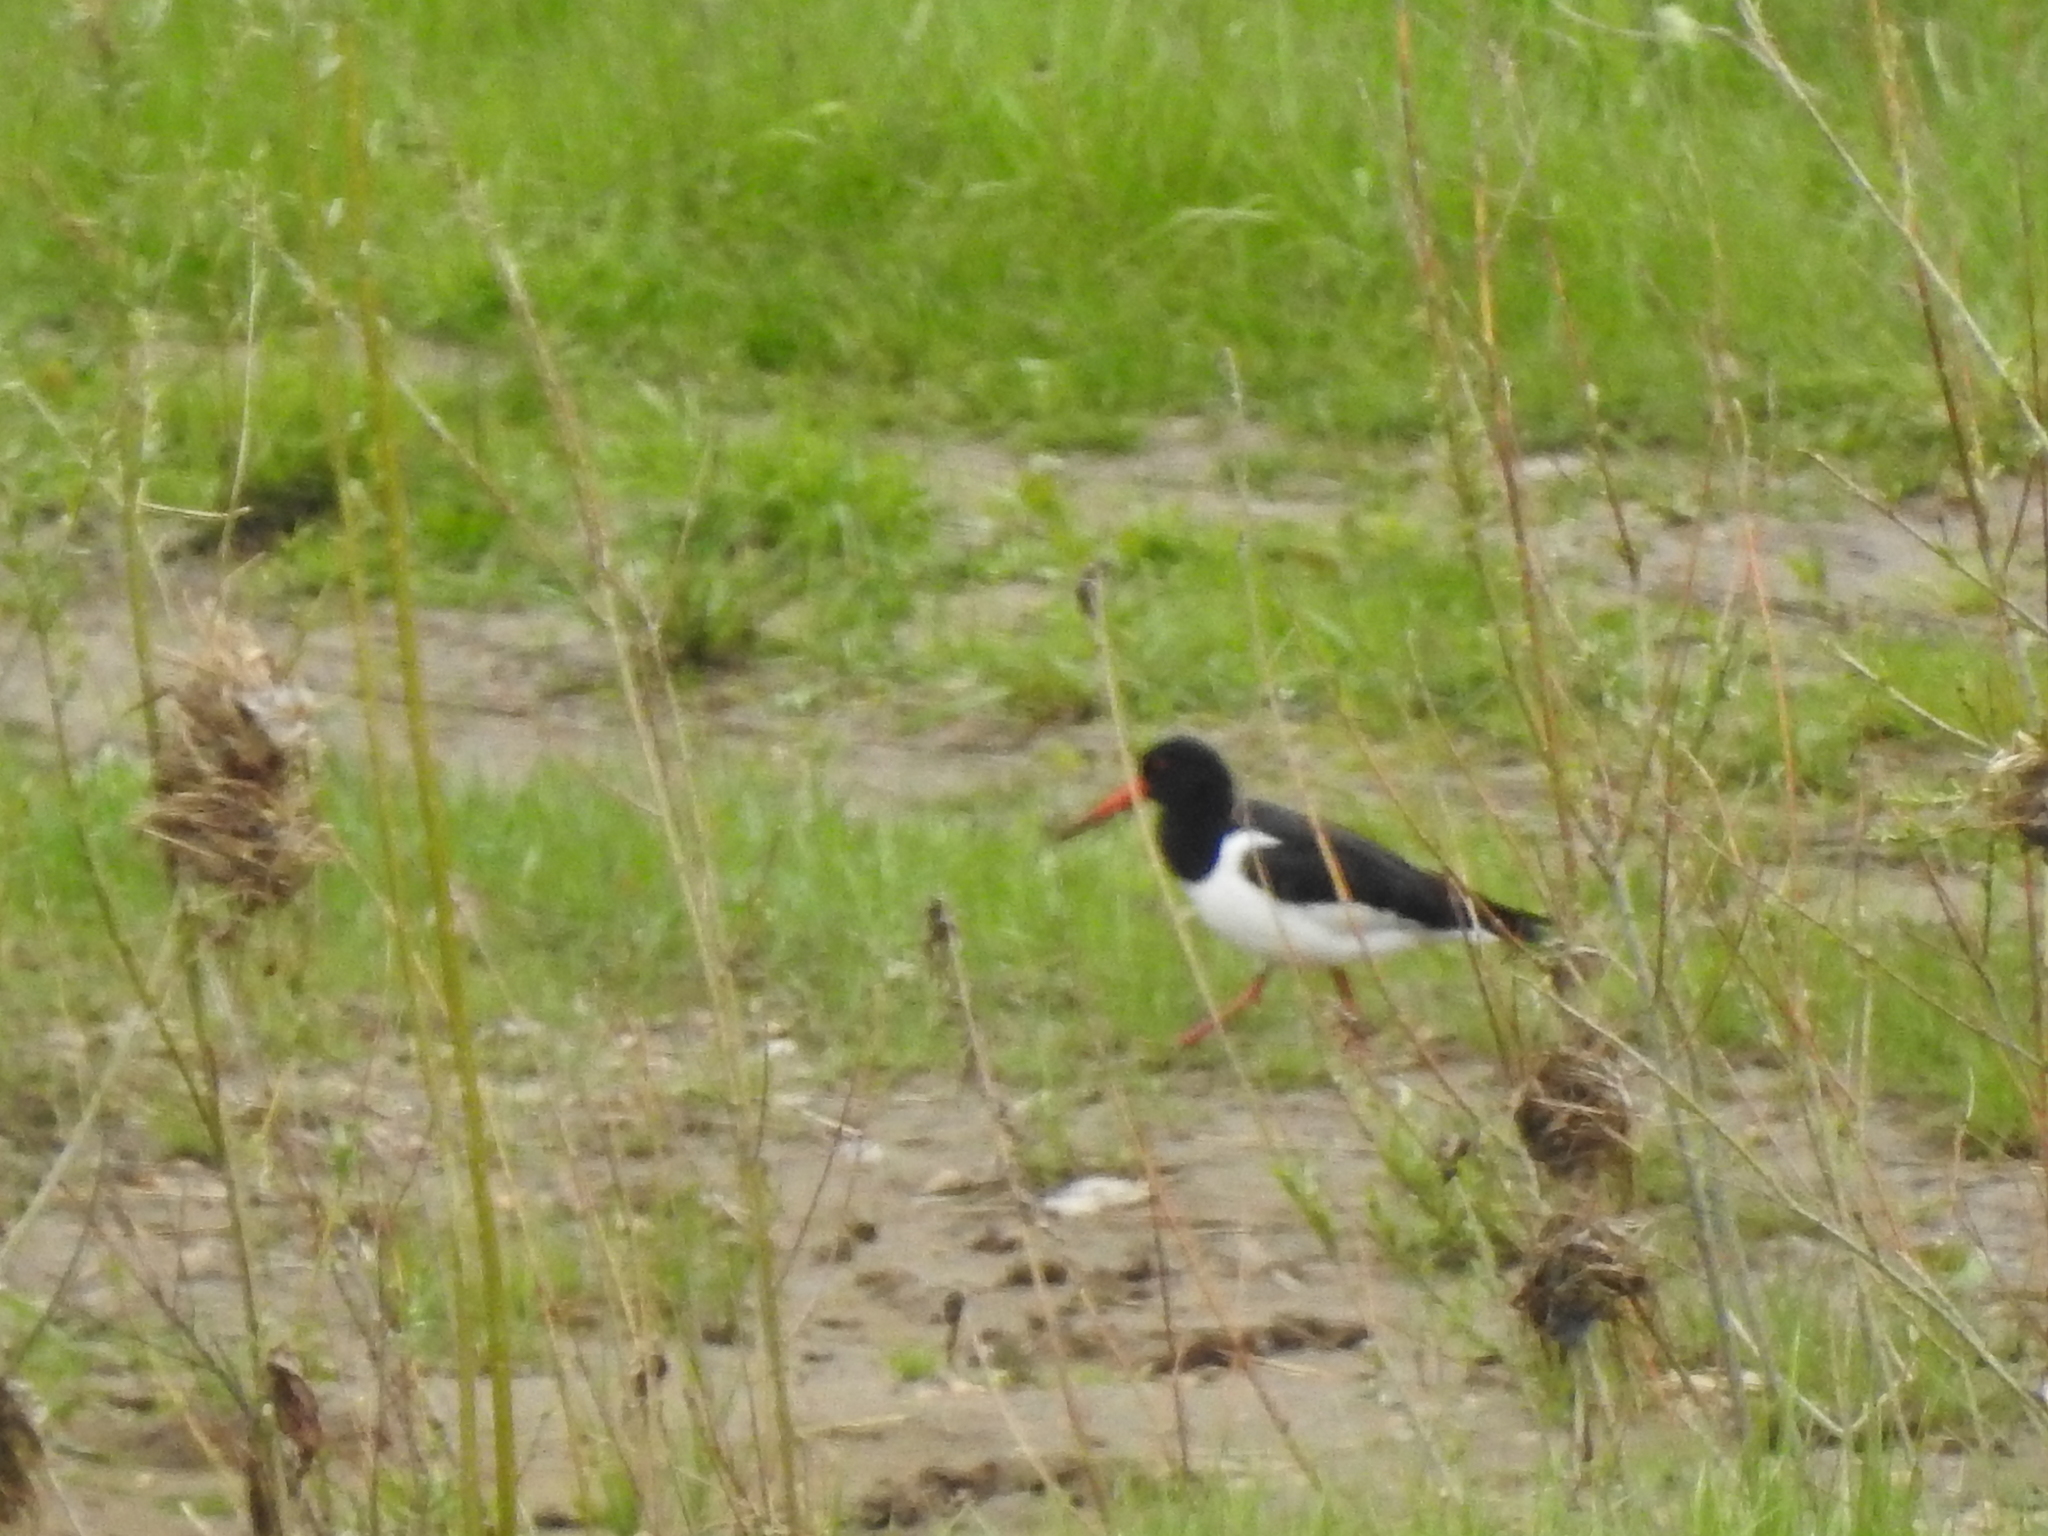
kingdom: Animalia
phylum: Chordata
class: Aves
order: Charadriiformes
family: Haematopodidae
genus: Haematopus
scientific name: Haematopus ostralegus
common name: Eurasian oystercatcher
